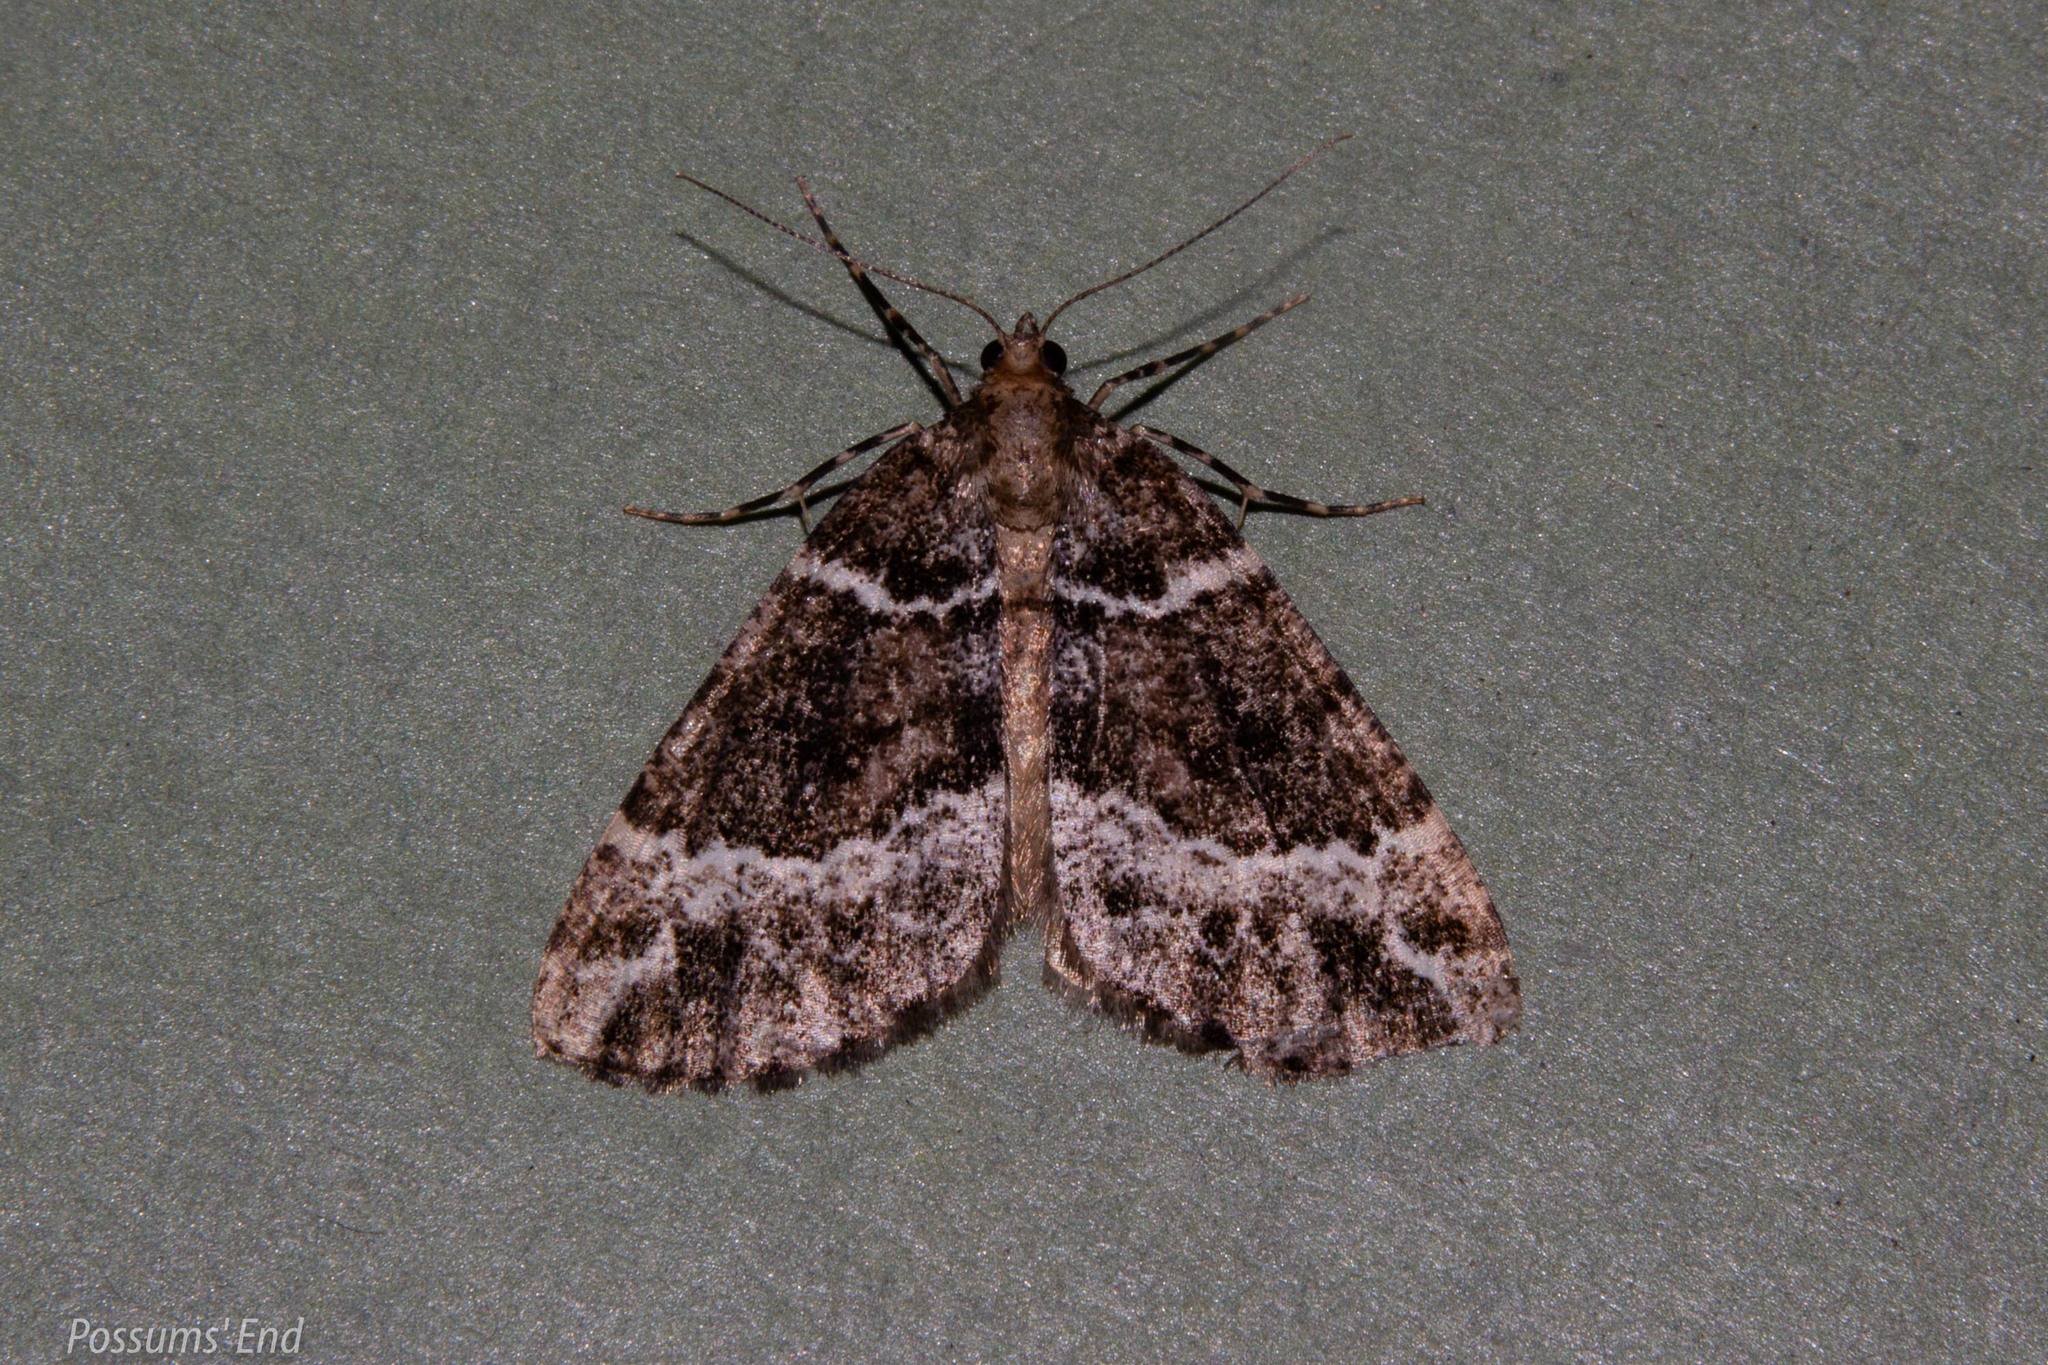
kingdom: Animalia
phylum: Arthropoda
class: Insecta
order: Lepidoptera
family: Geometridae
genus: Pseudocoremia
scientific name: Pseudocoremia
